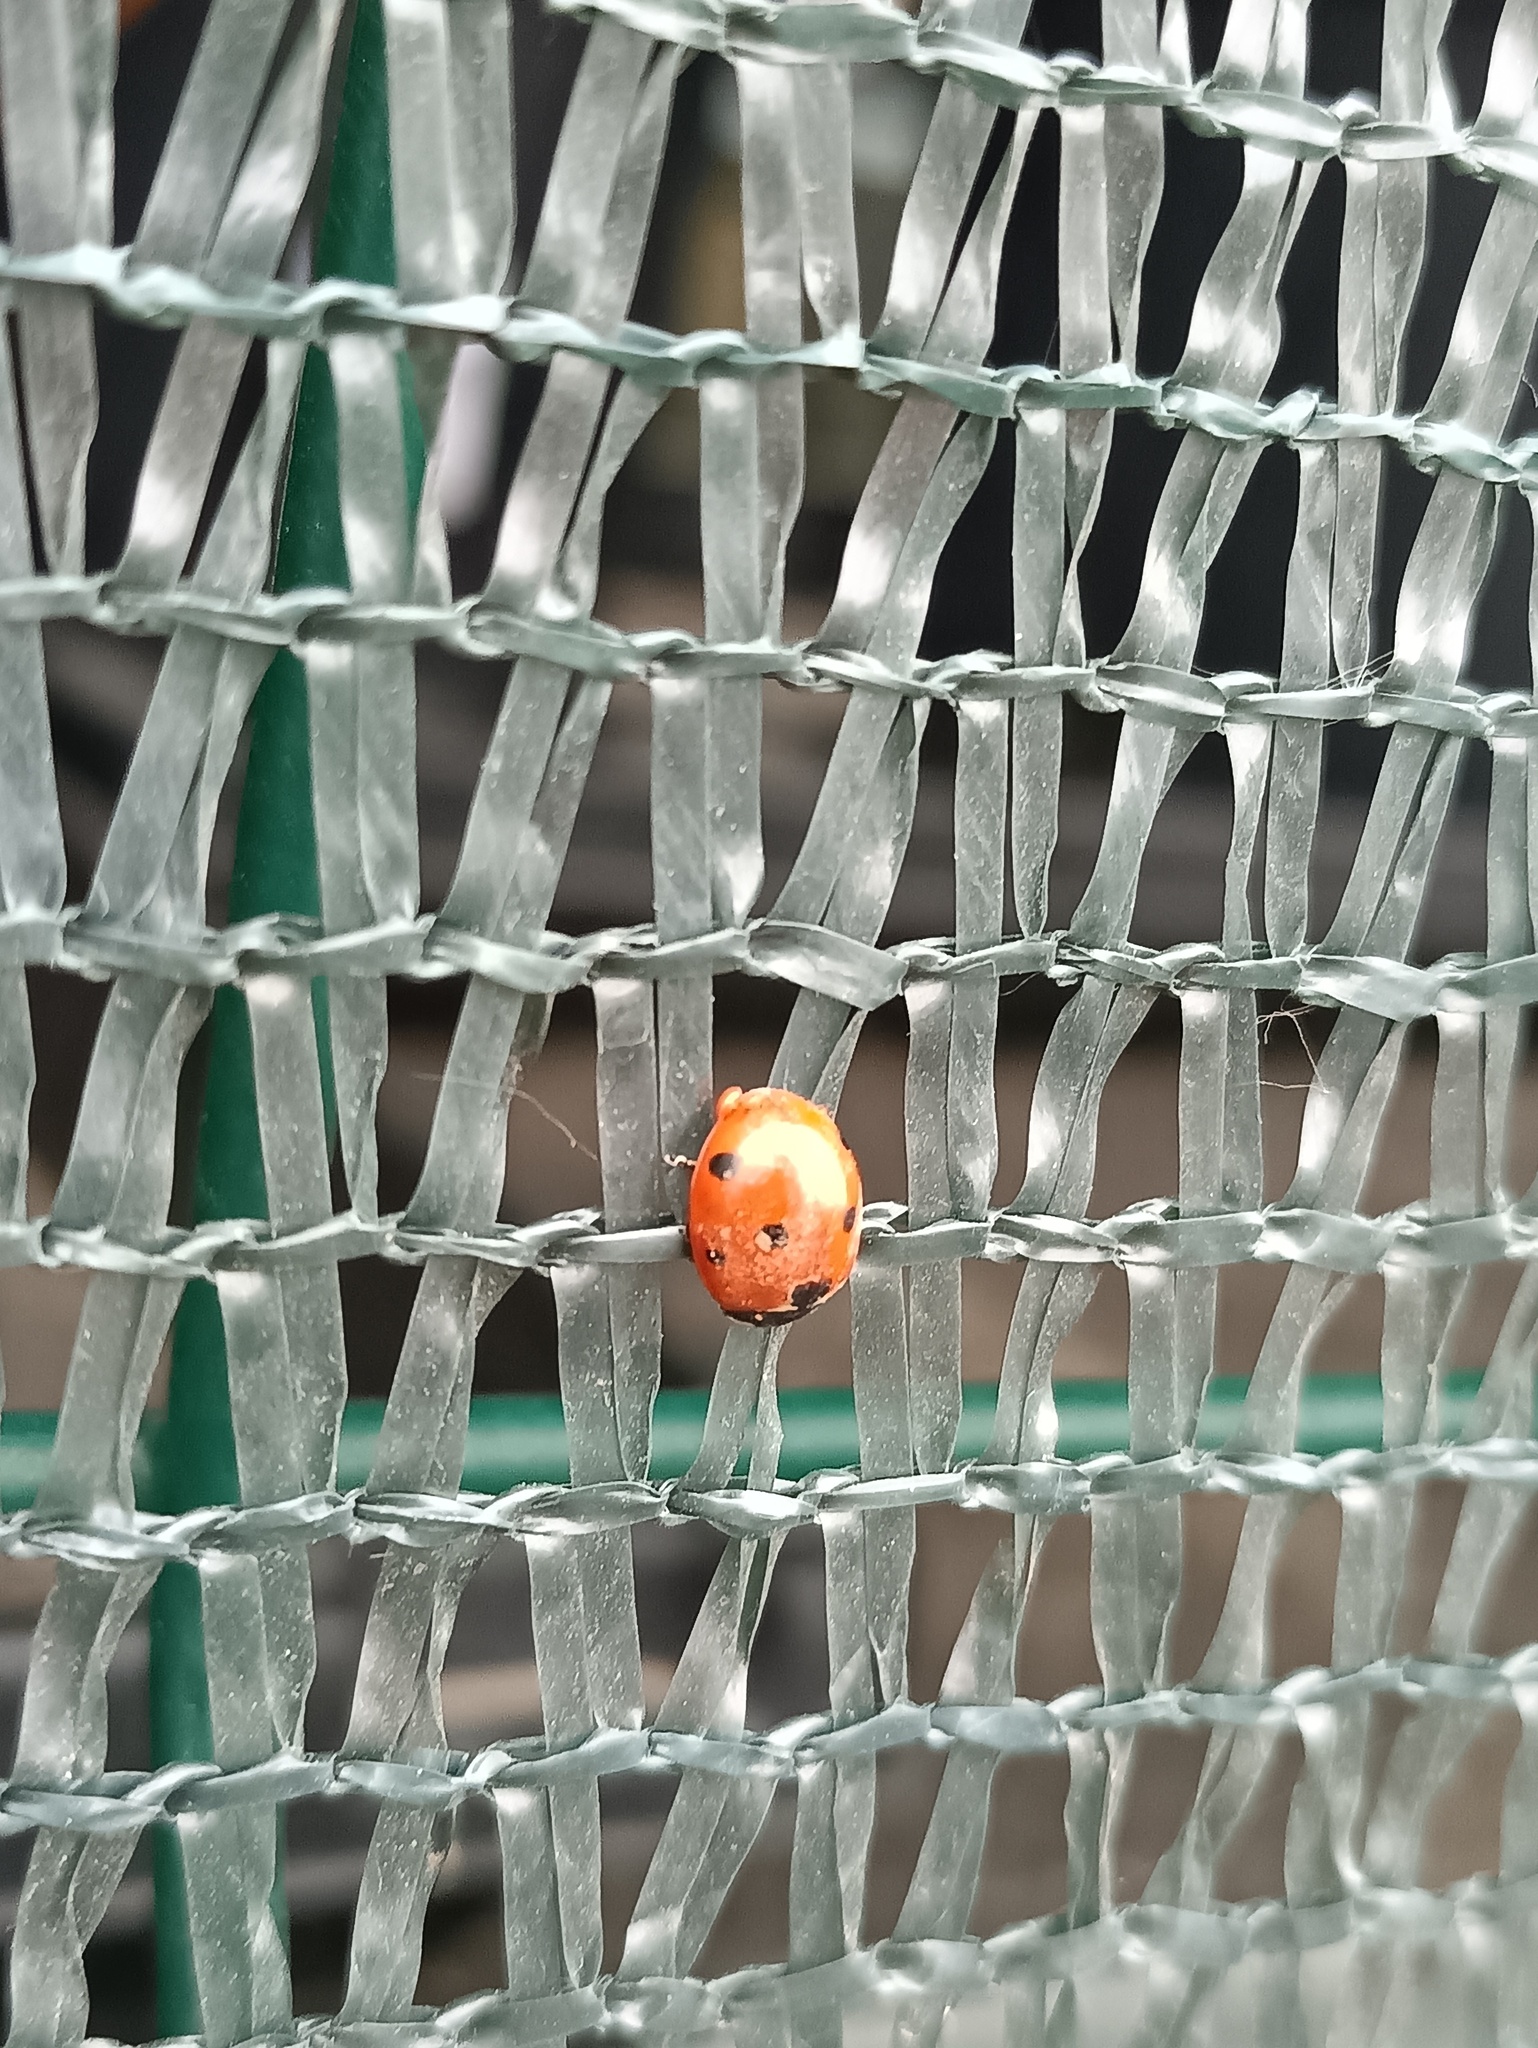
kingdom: Animalia
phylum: Arthropoda
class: Insecta
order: Coleoptera
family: Coccinellidae
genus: Coccinella
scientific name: Coccinella septempunctata
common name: Sevenspotted lady beetle
